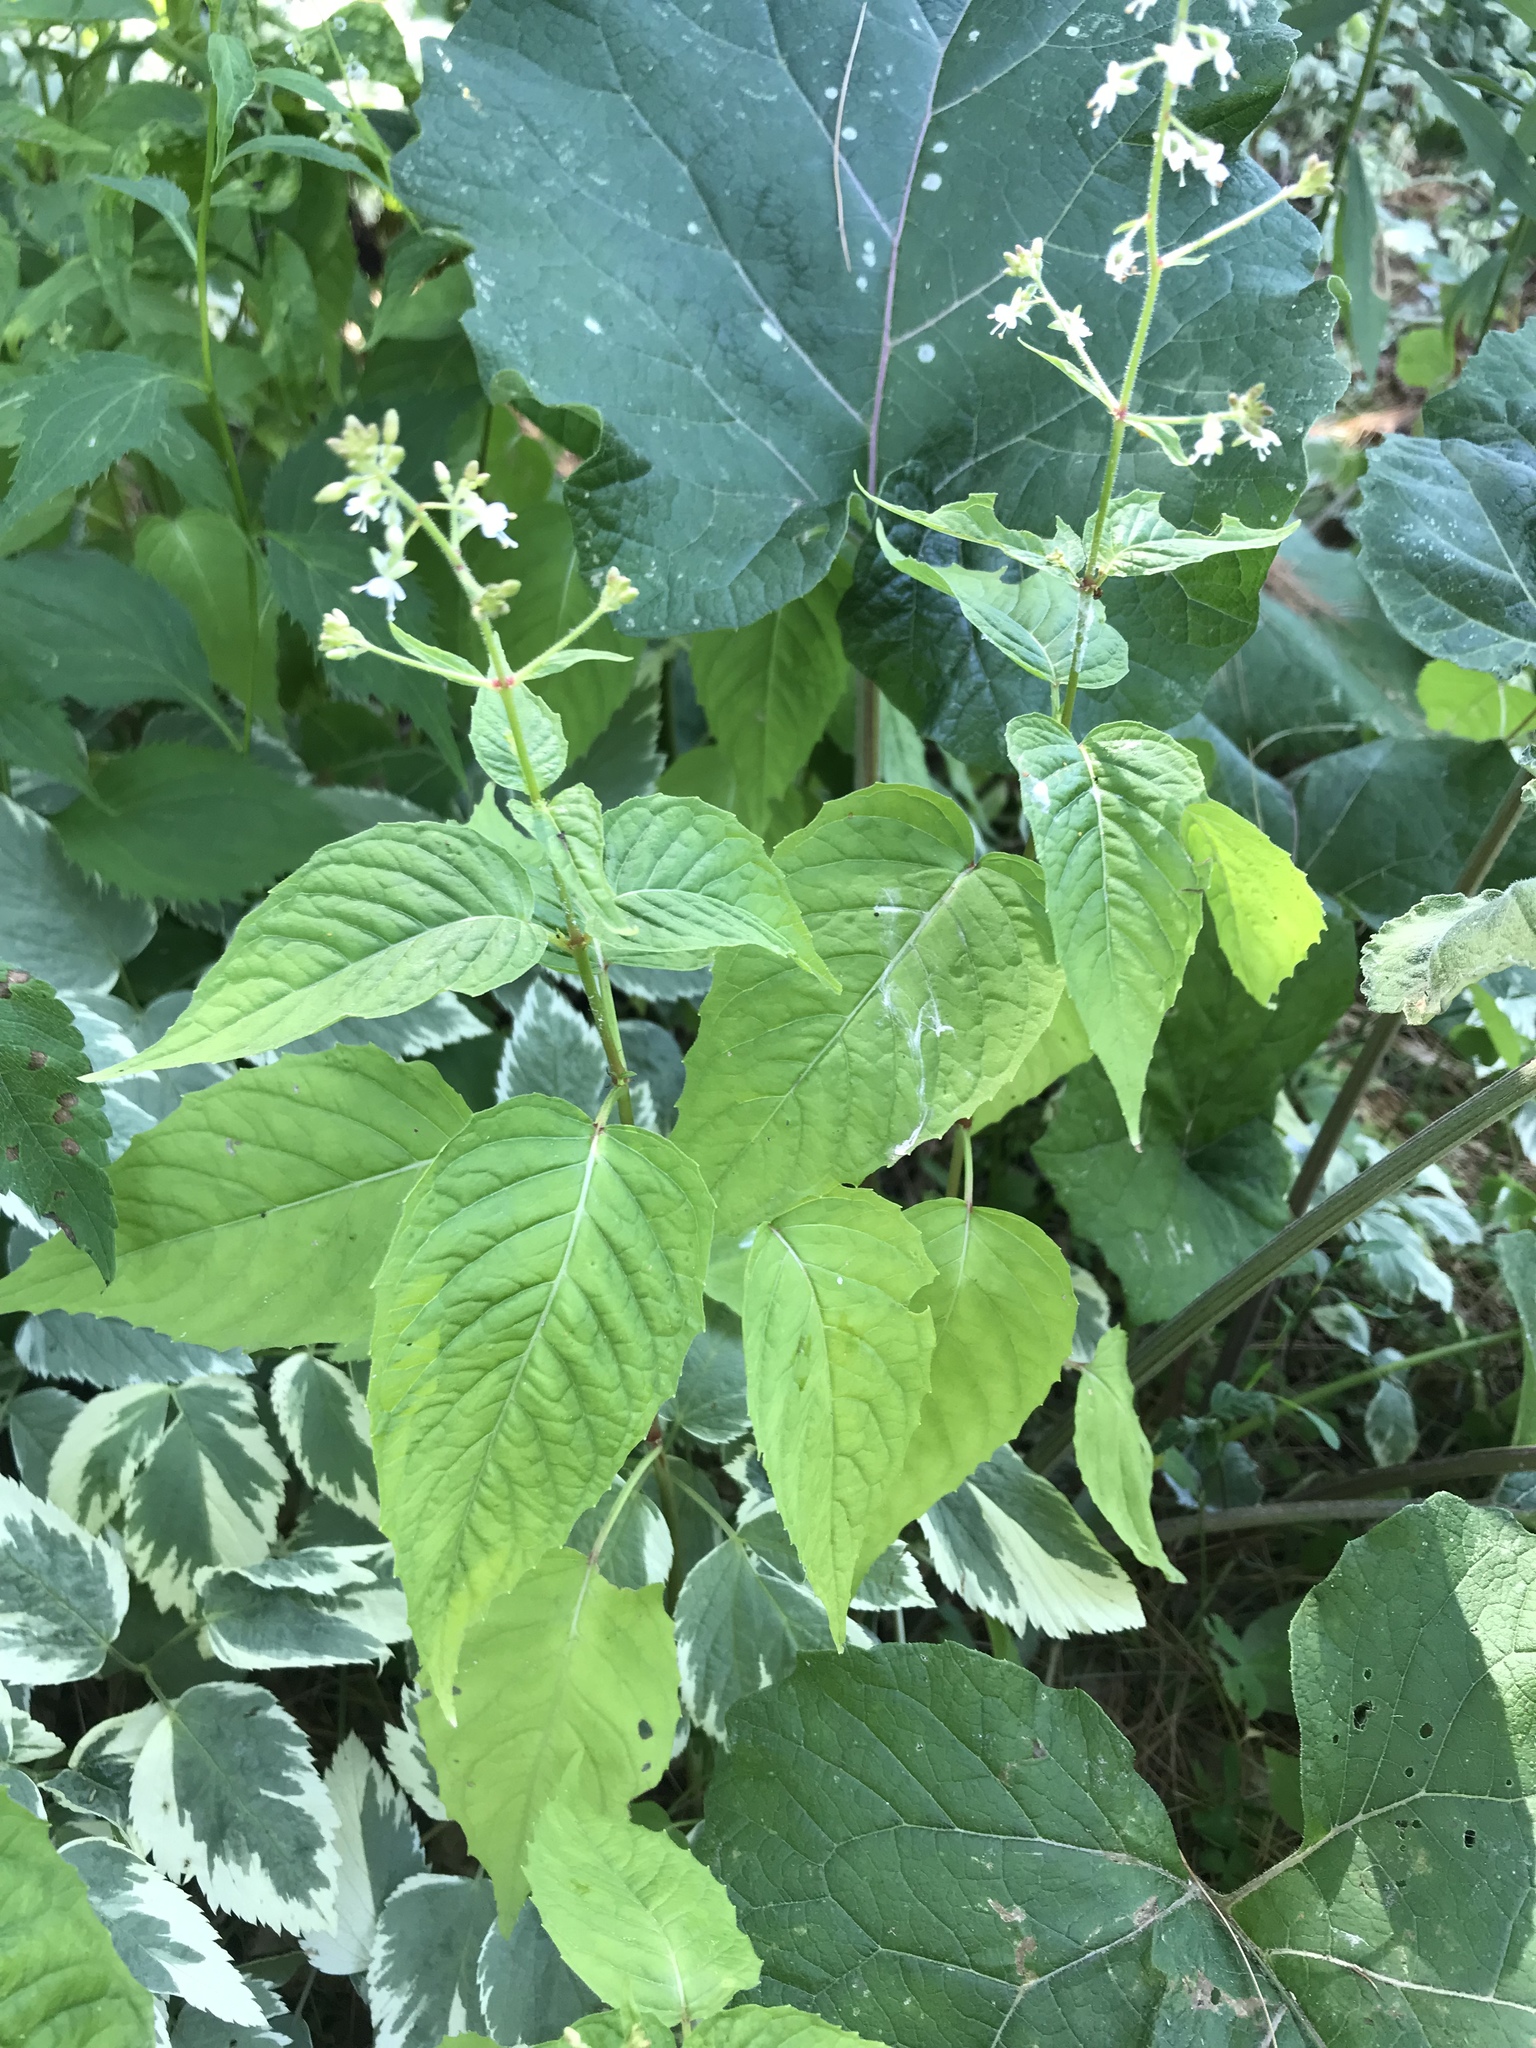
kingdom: Plantae
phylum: Tracheophyta
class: Magnoliopsida
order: Myrtales
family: Onagraceae
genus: Circaea
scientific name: Circaea canadensis
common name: Broad-leaved enchanter's nightshade
